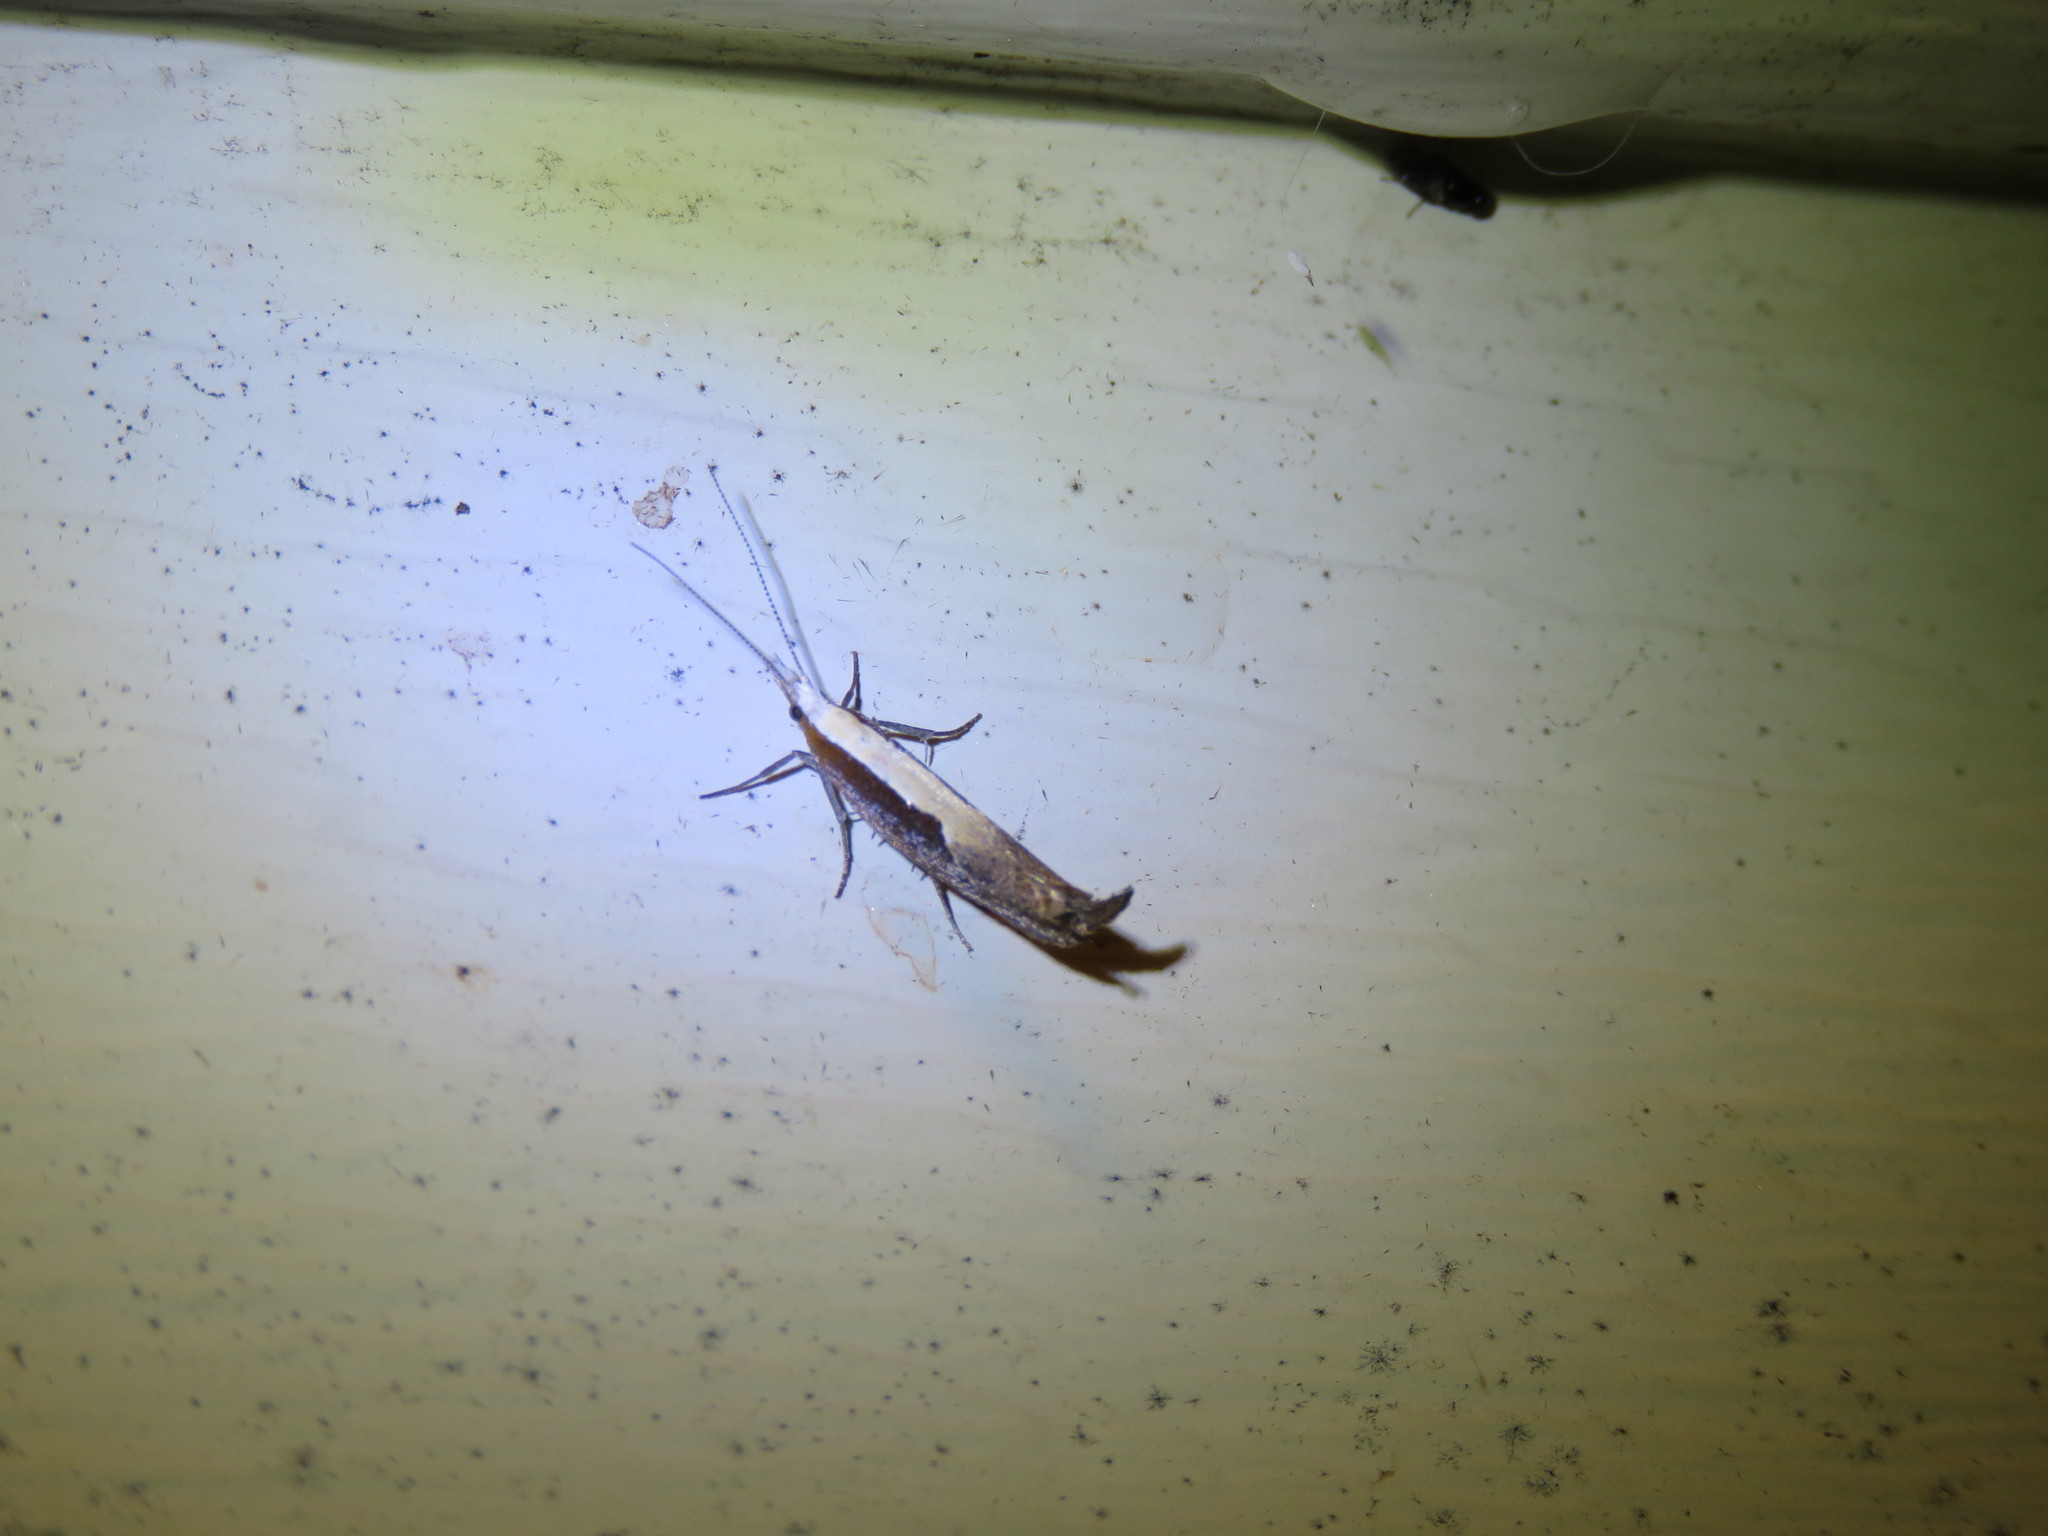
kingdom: Animalia
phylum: Arthropoda
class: Insecta
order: Lepidoptera
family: Ypsolophidae
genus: Ypsolopha
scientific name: Ypsolopha dentella
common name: Honeysuckle moth
